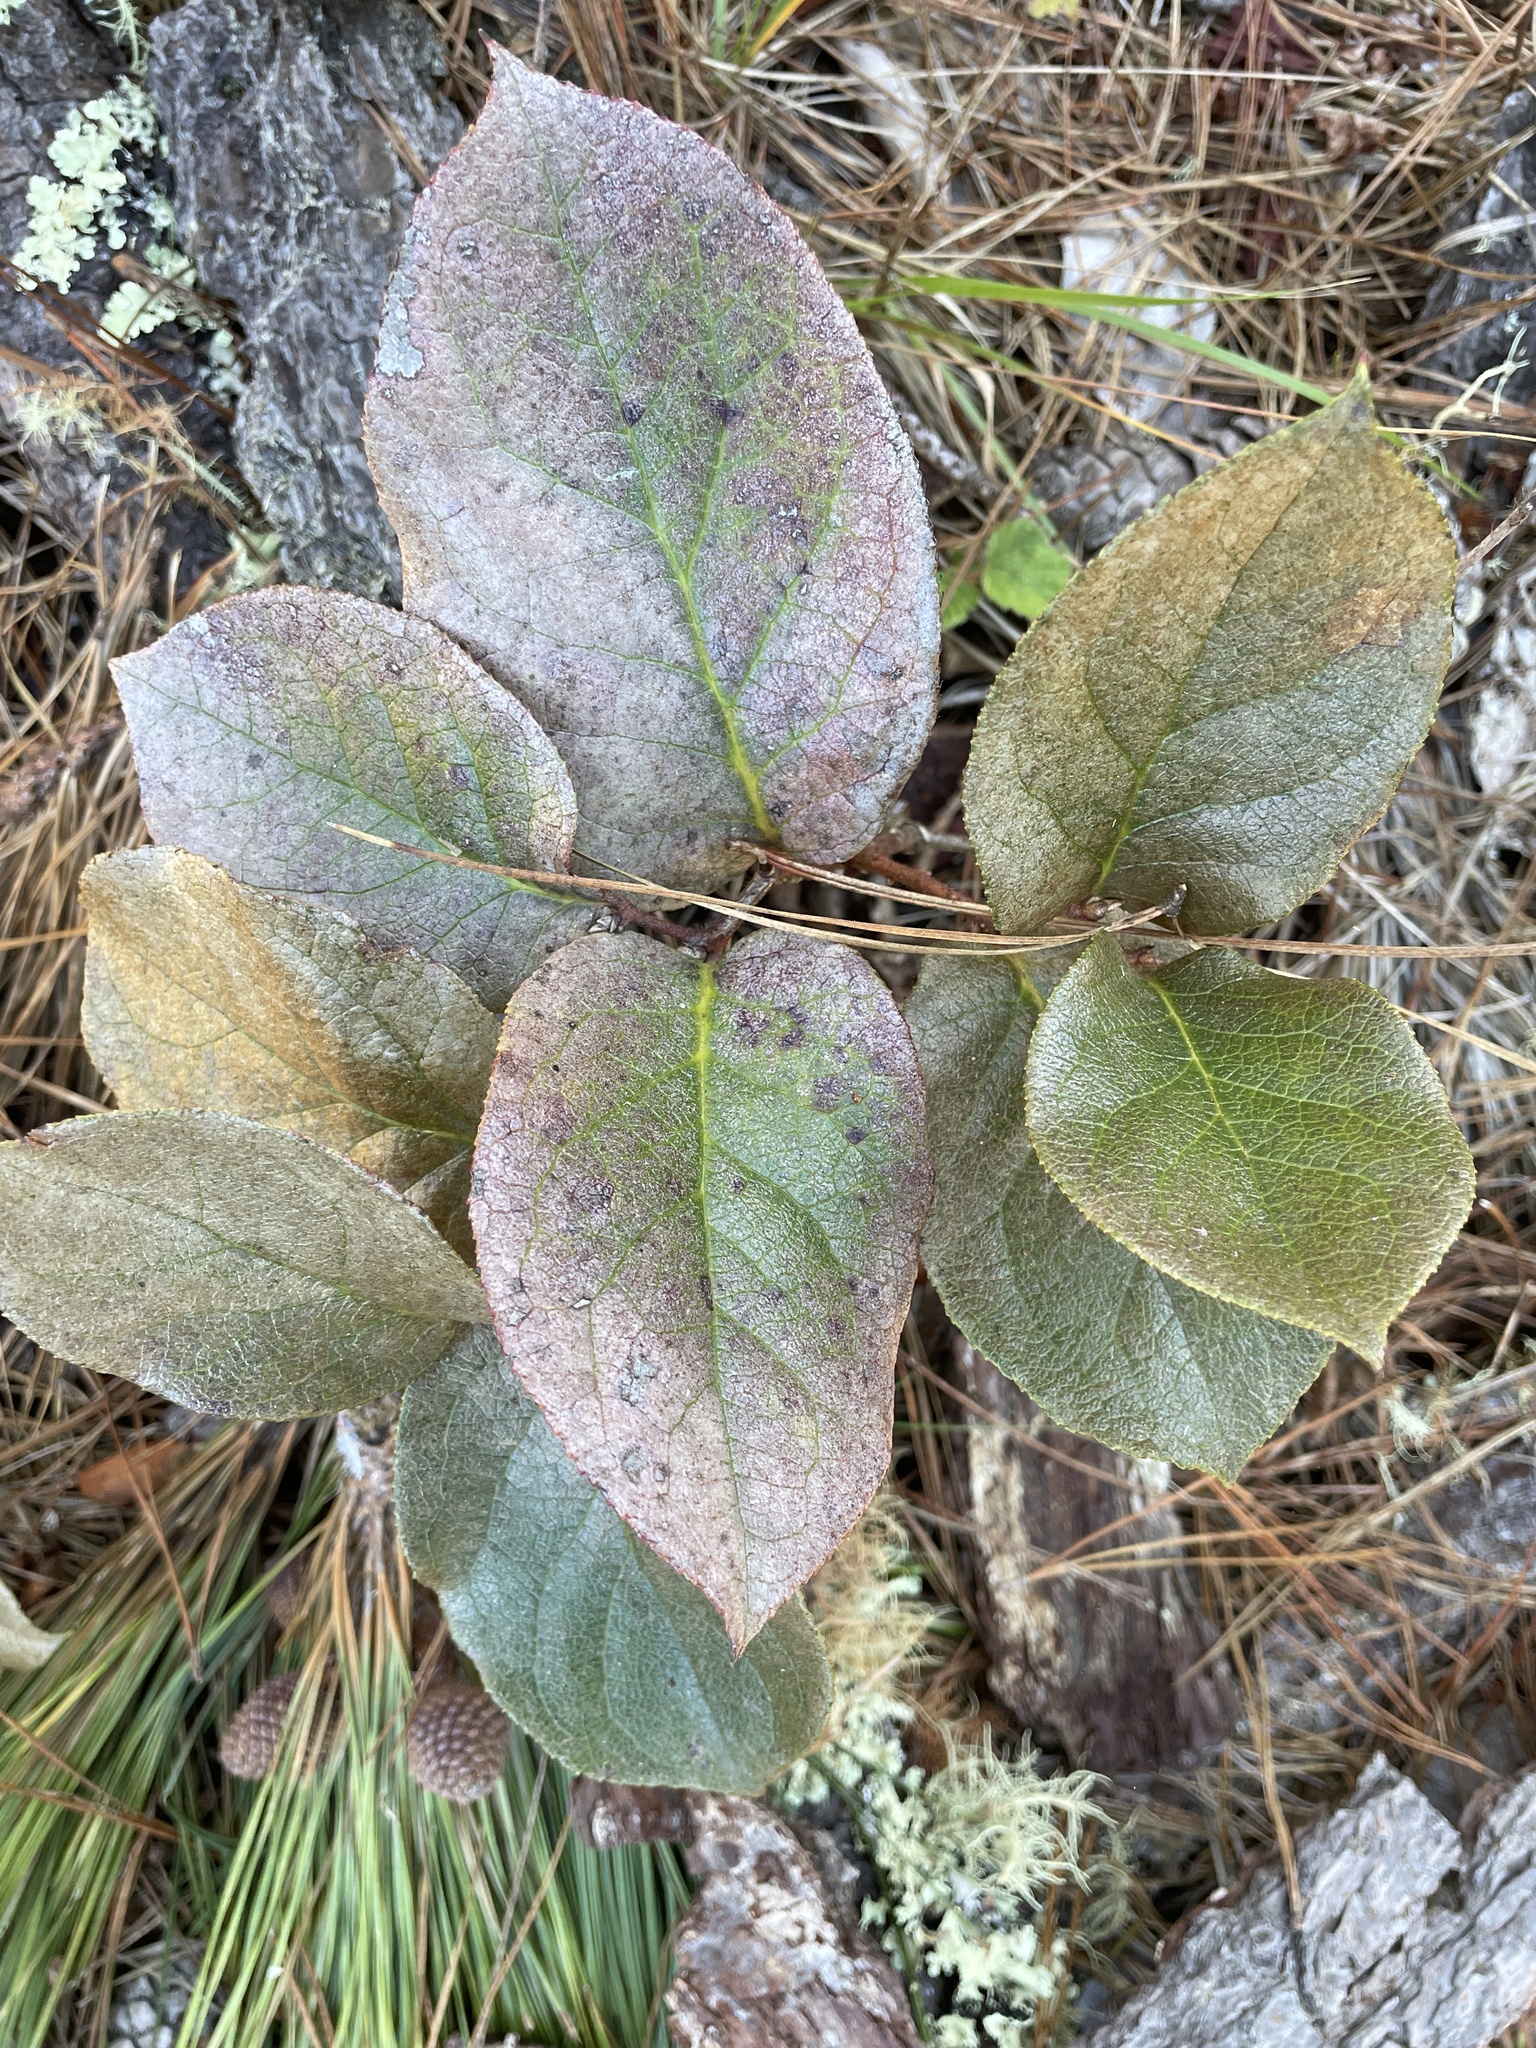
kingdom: Plantae
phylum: Tracheophyta
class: Magnoliopsida
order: Ericales
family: Ericaceae
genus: Gaultheria
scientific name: Gaultheria shallon
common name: Shallon
